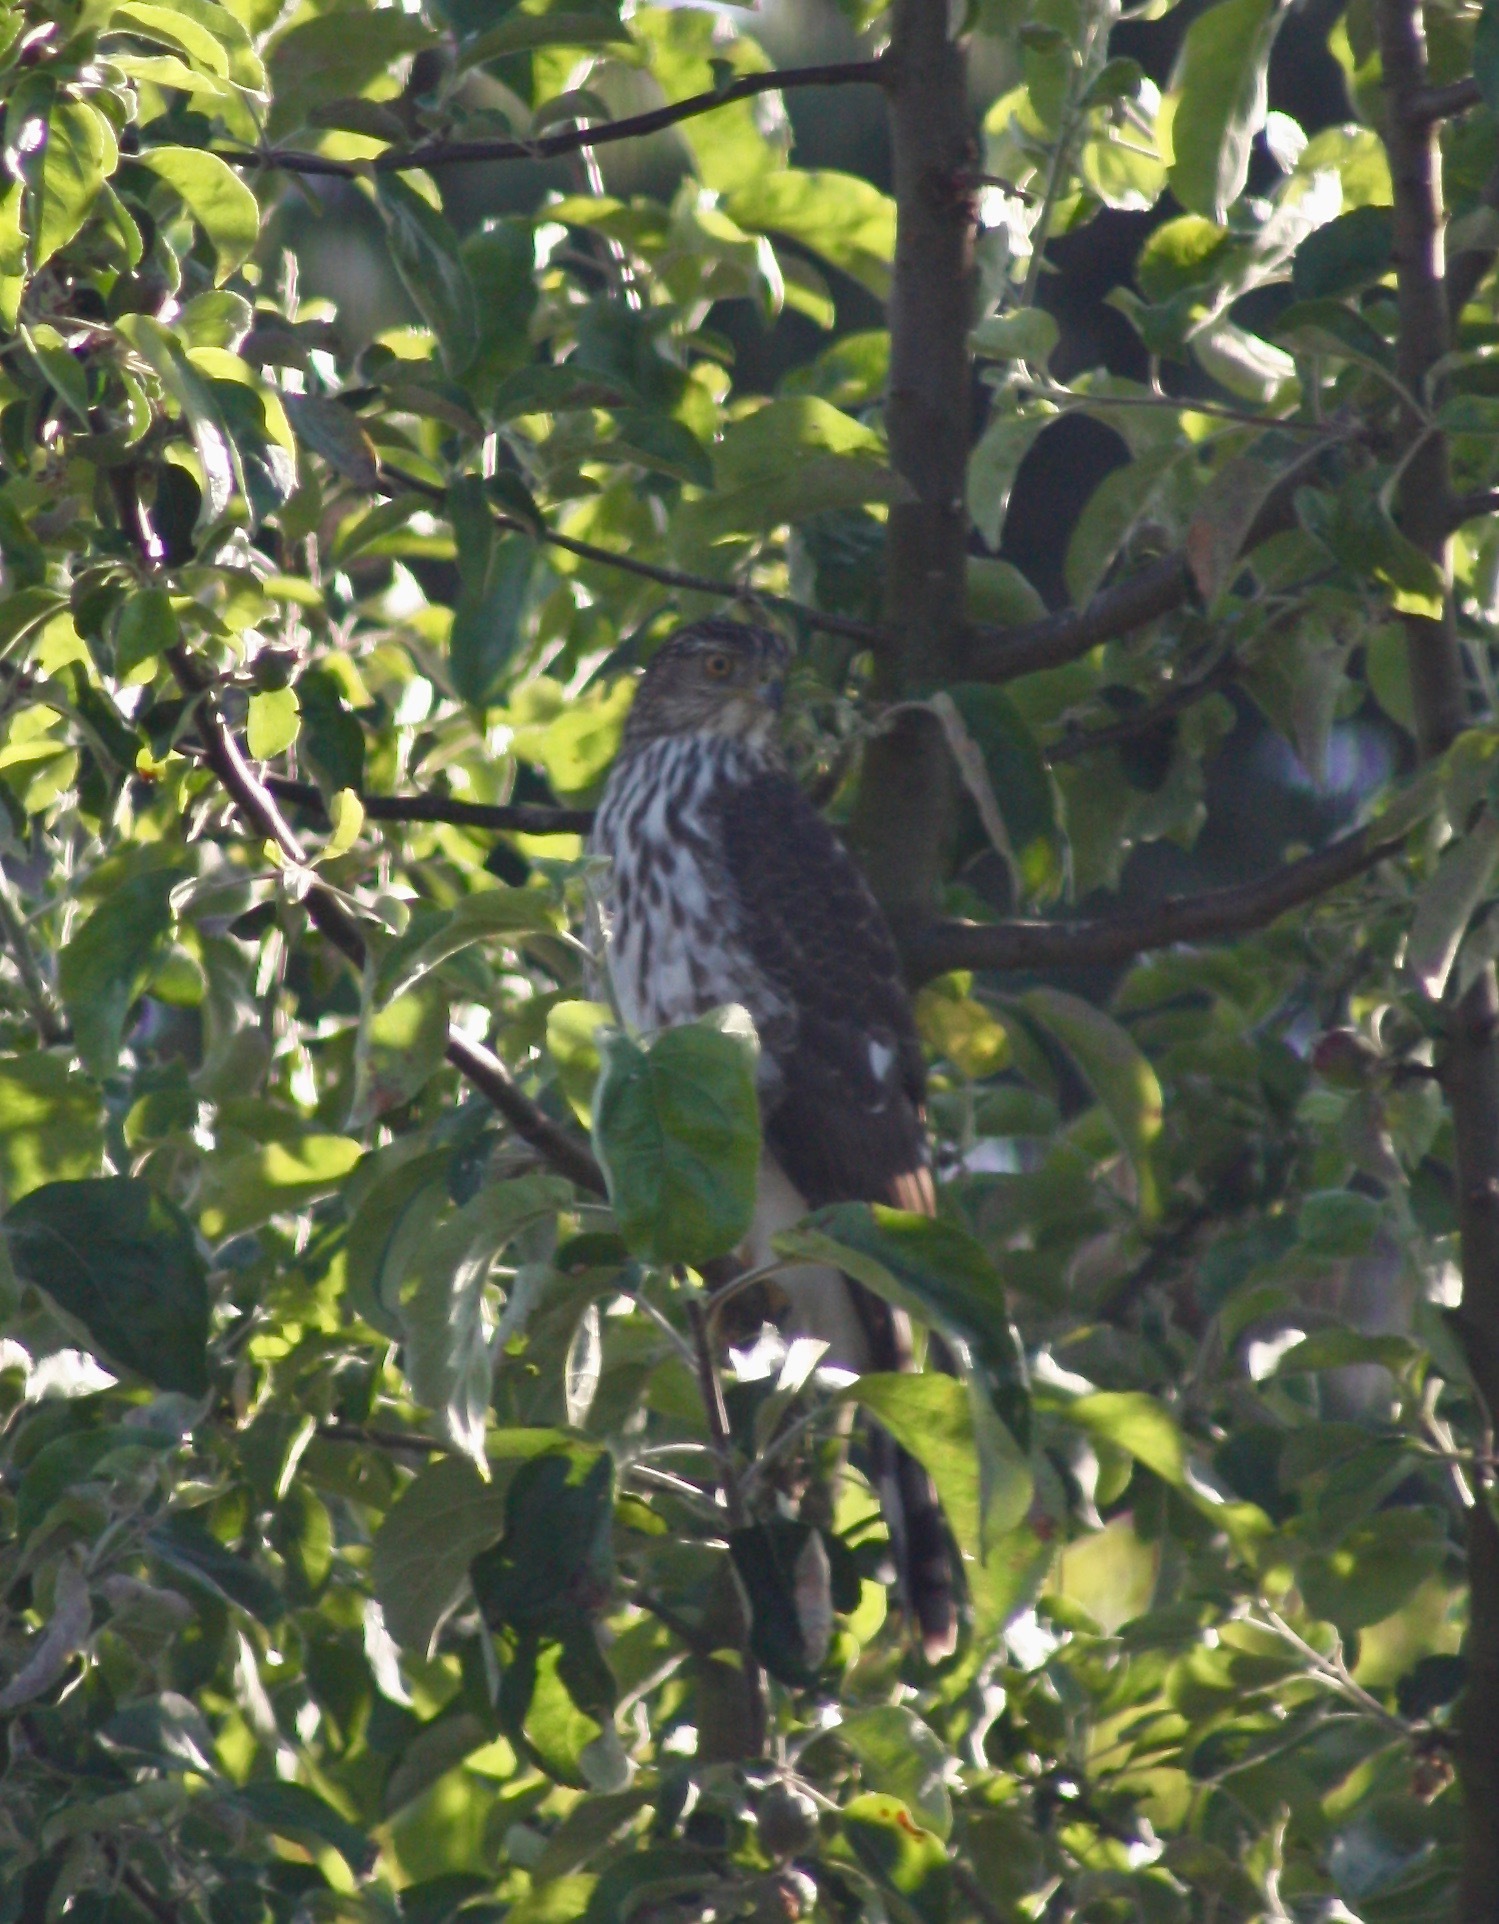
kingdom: Animalia
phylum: Chordata
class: Aves
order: Accipitriformes
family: Accipitridae
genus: Accipiter
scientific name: Accipiter cooperii
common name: Cooper's hawk
